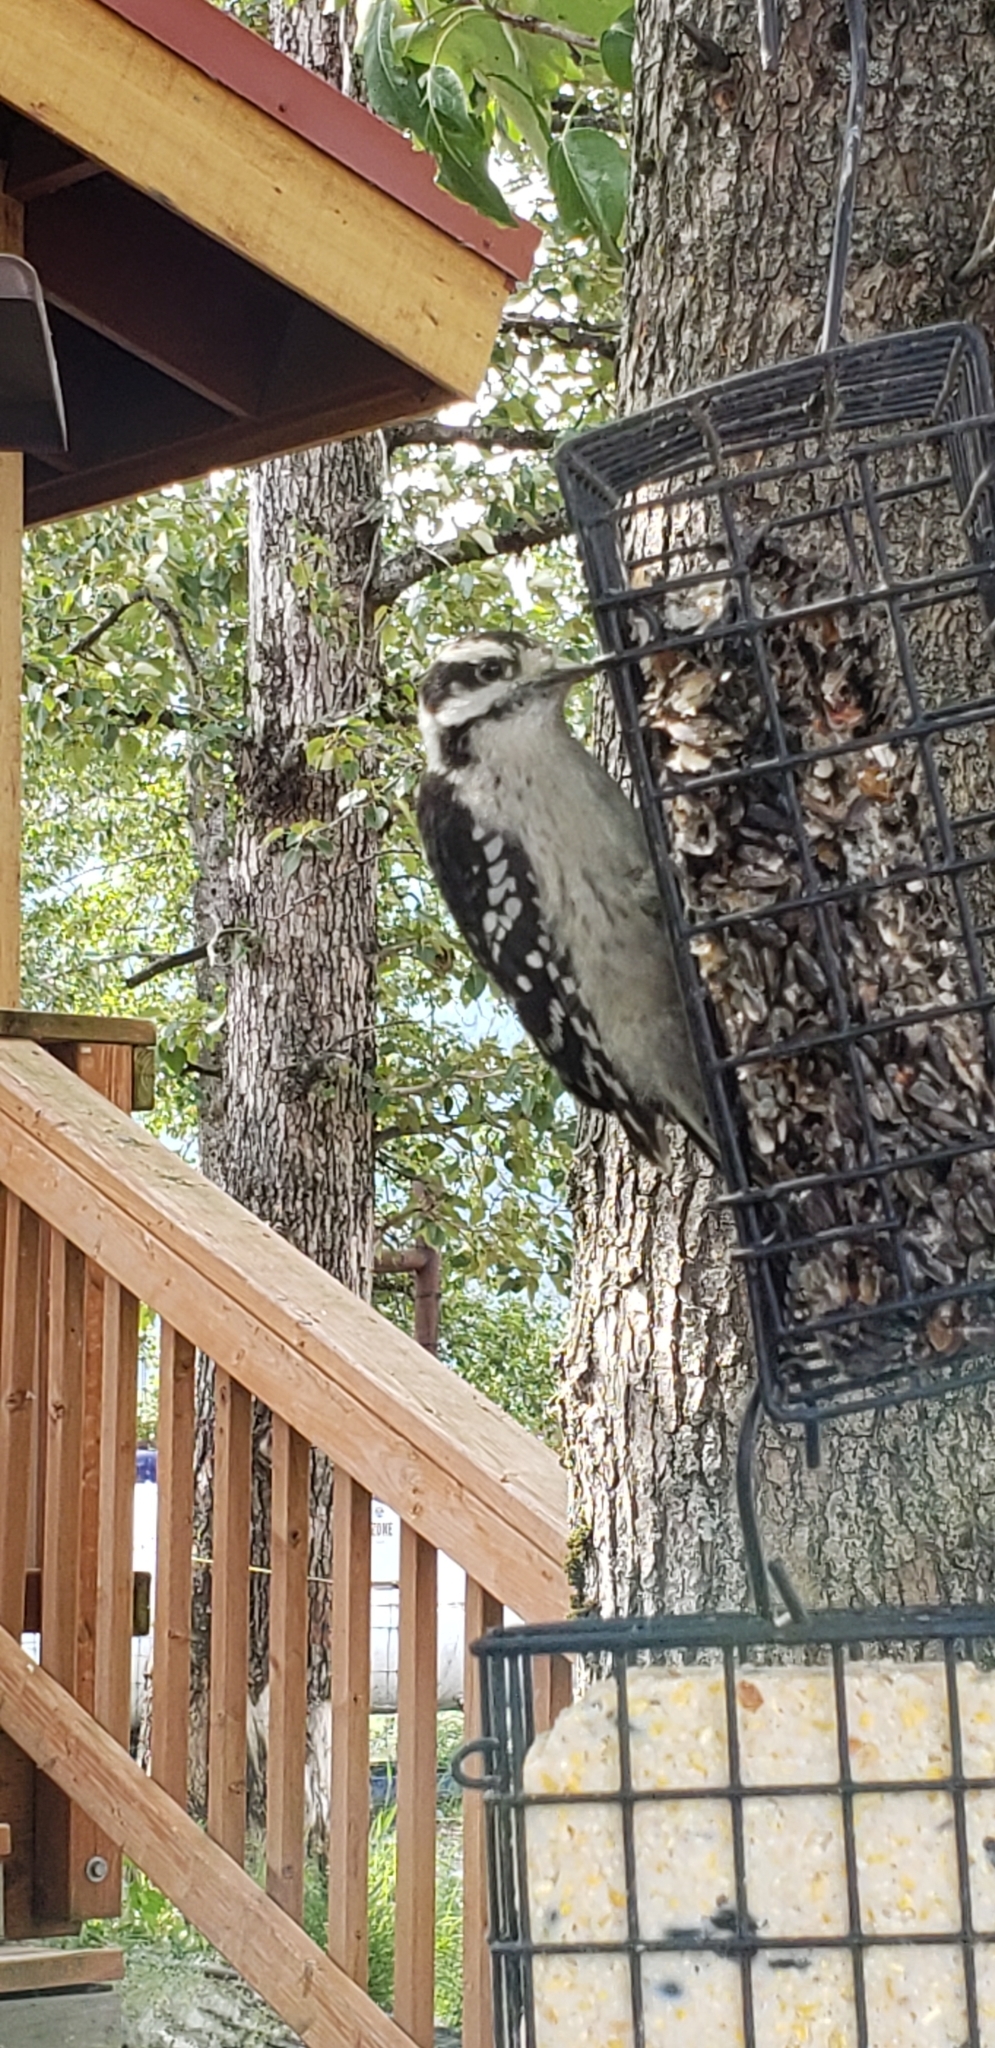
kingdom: Animalia
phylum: Chordata
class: Aves
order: Piciformes
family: Picidae
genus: Dryobates
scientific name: Dryobates pubescens
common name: Downy woodpecker
